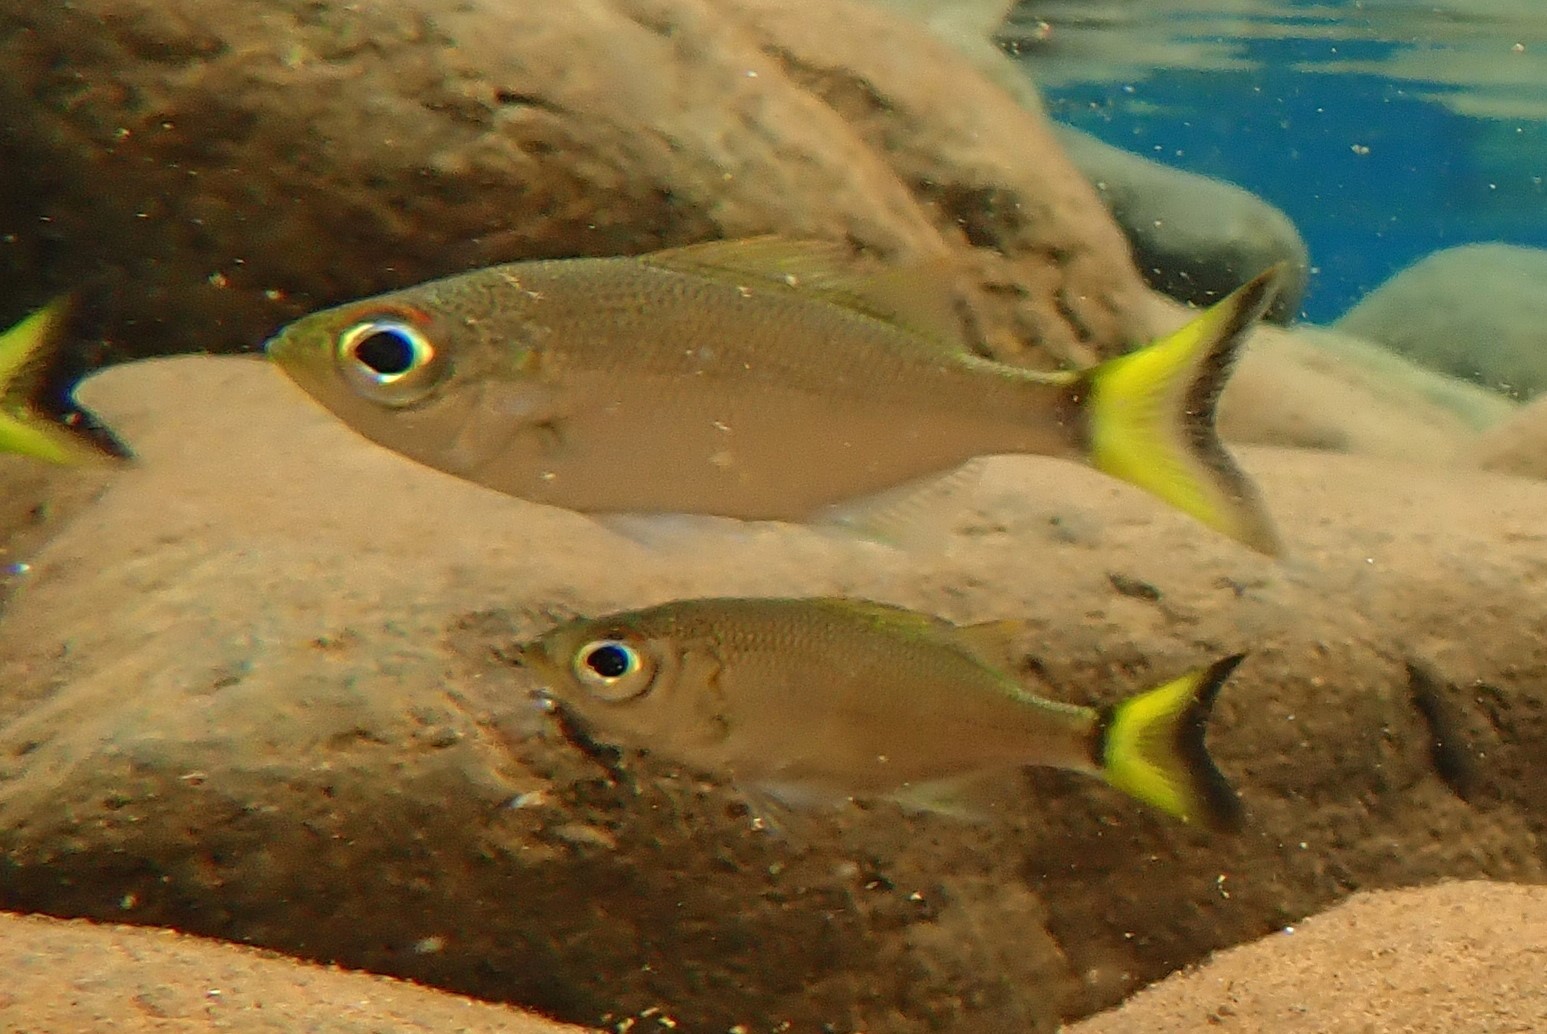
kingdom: Animalia
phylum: Chordata
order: Perciformes
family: Kuhliidae
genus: Kuhlia
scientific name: Kuhlia munda
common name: Silver flagtail
